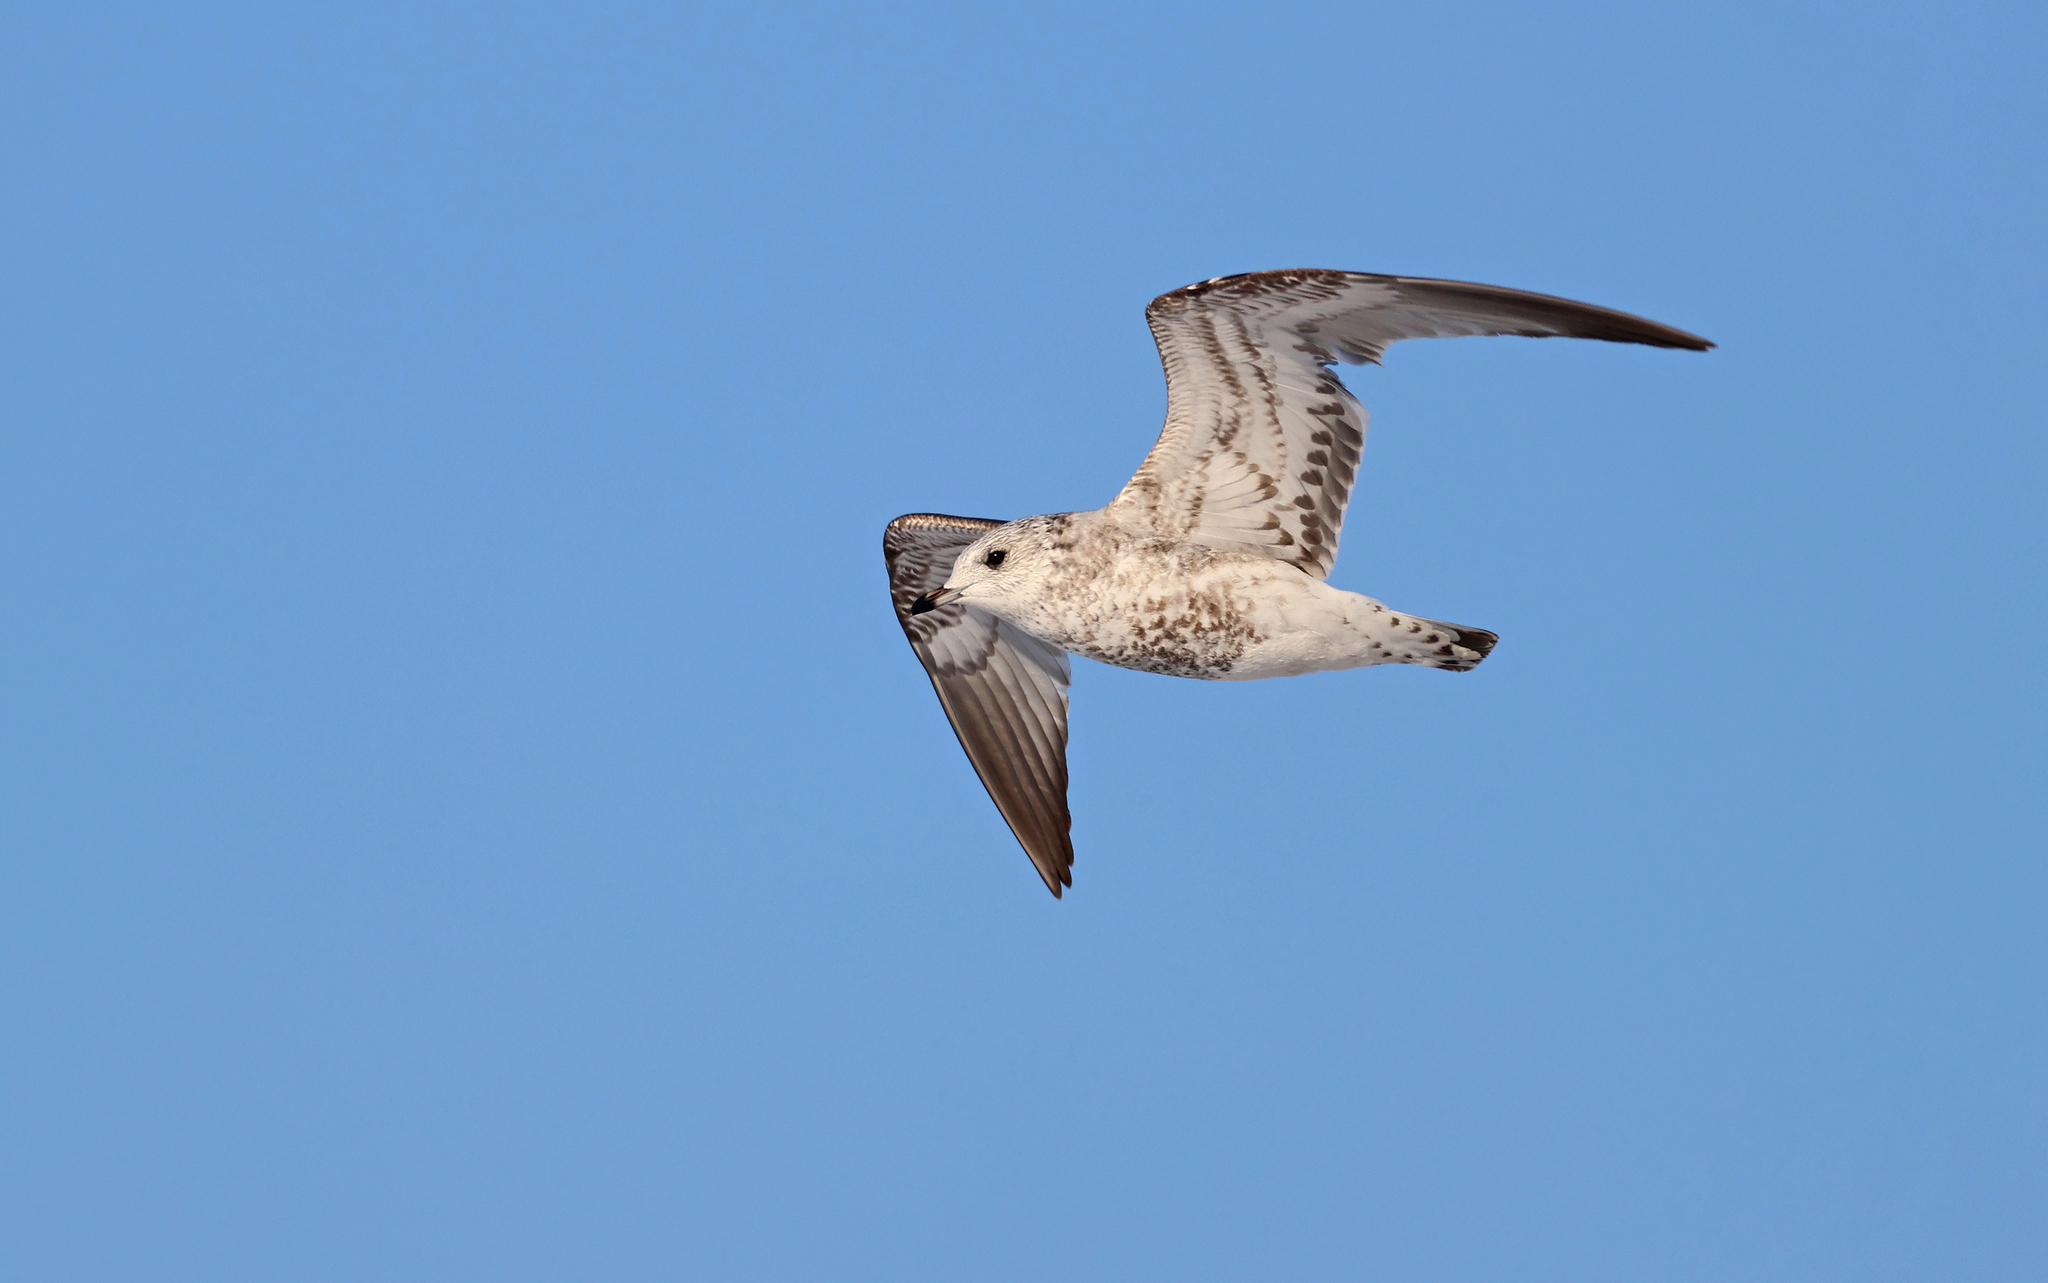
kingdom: Animalia
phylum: Chordata
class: Aves
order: Charadriiformes
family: Laridae
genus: Larus
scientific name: Larus canus
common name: Mew gull
